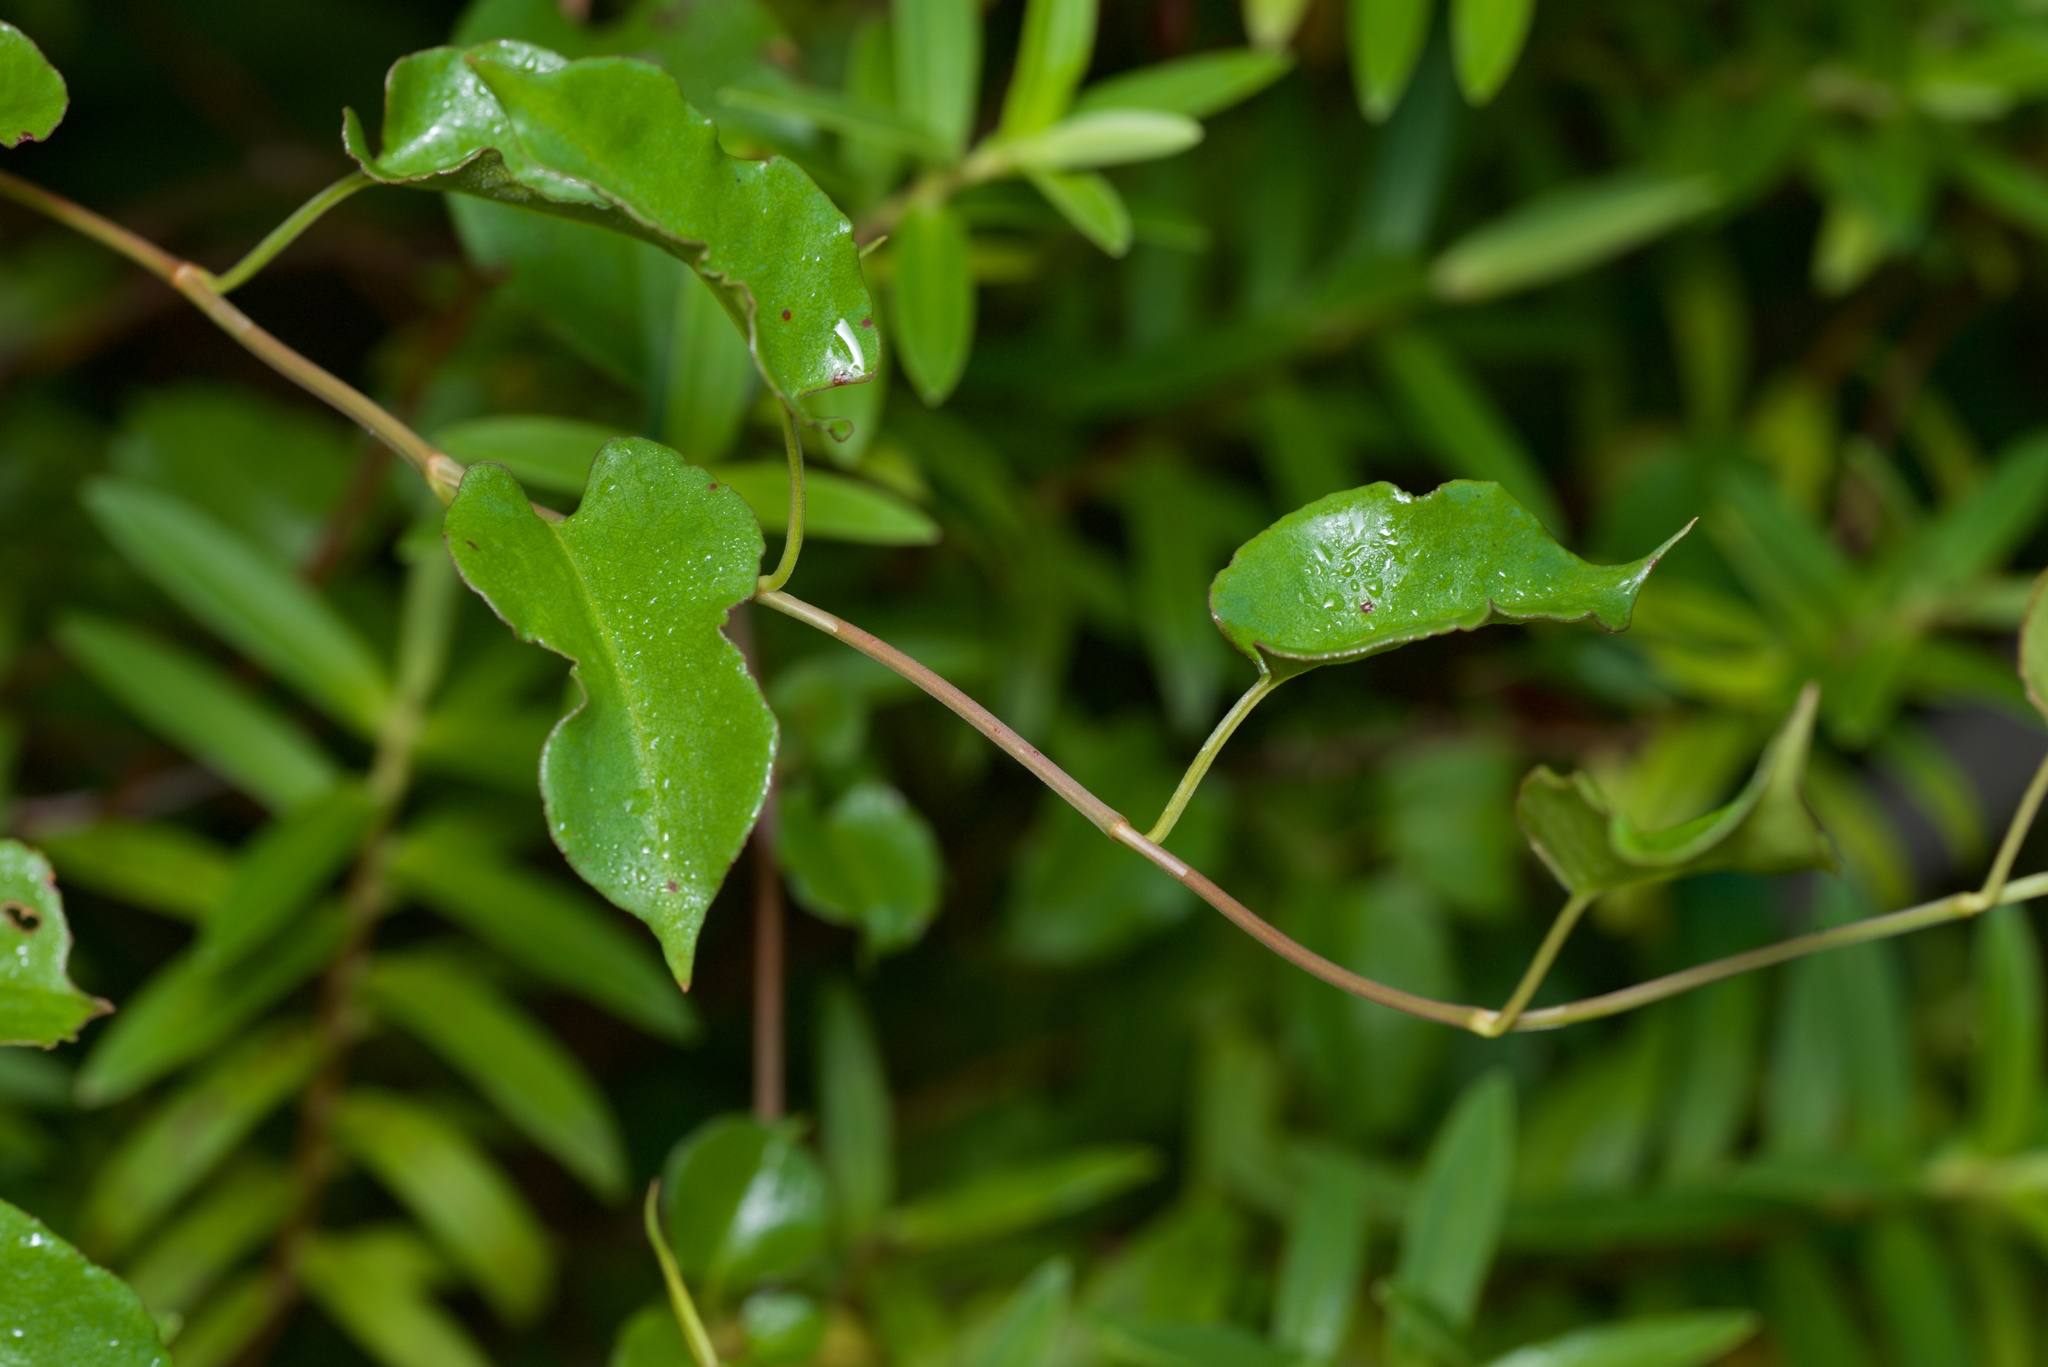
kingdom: Plantae
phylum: Tracheophyta
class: Magnoliopsida
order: Caryophyllales
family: Polygonaceae
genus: Muehlenbeckia
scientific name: Muehlenbeckia australis
